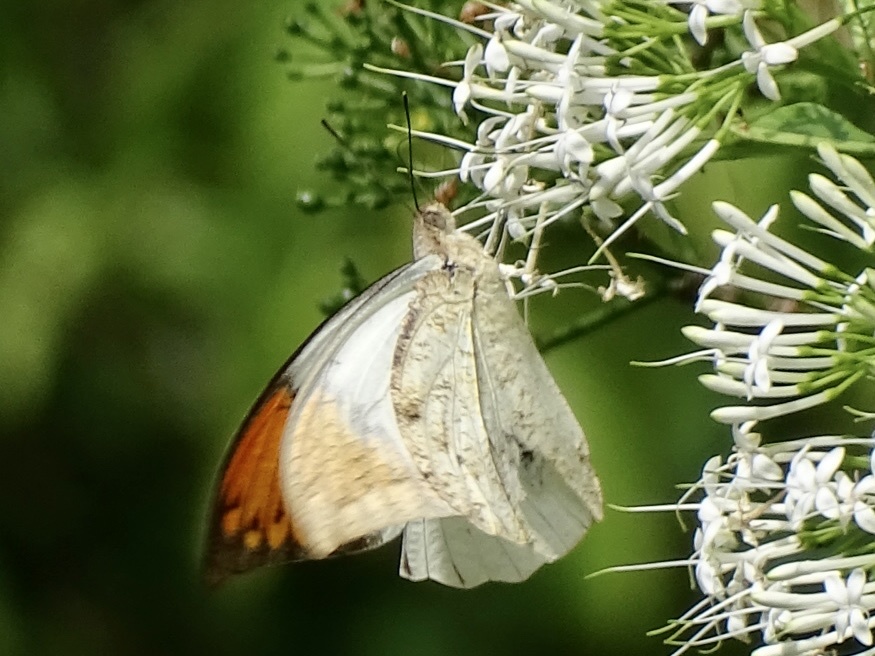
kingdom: Animalia
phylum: Arthropoda
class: Insecta
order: Lepidoptera
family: Pieridae
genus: Hebomoia
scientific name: Hebomoia glaucippe
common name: Great orange tip
